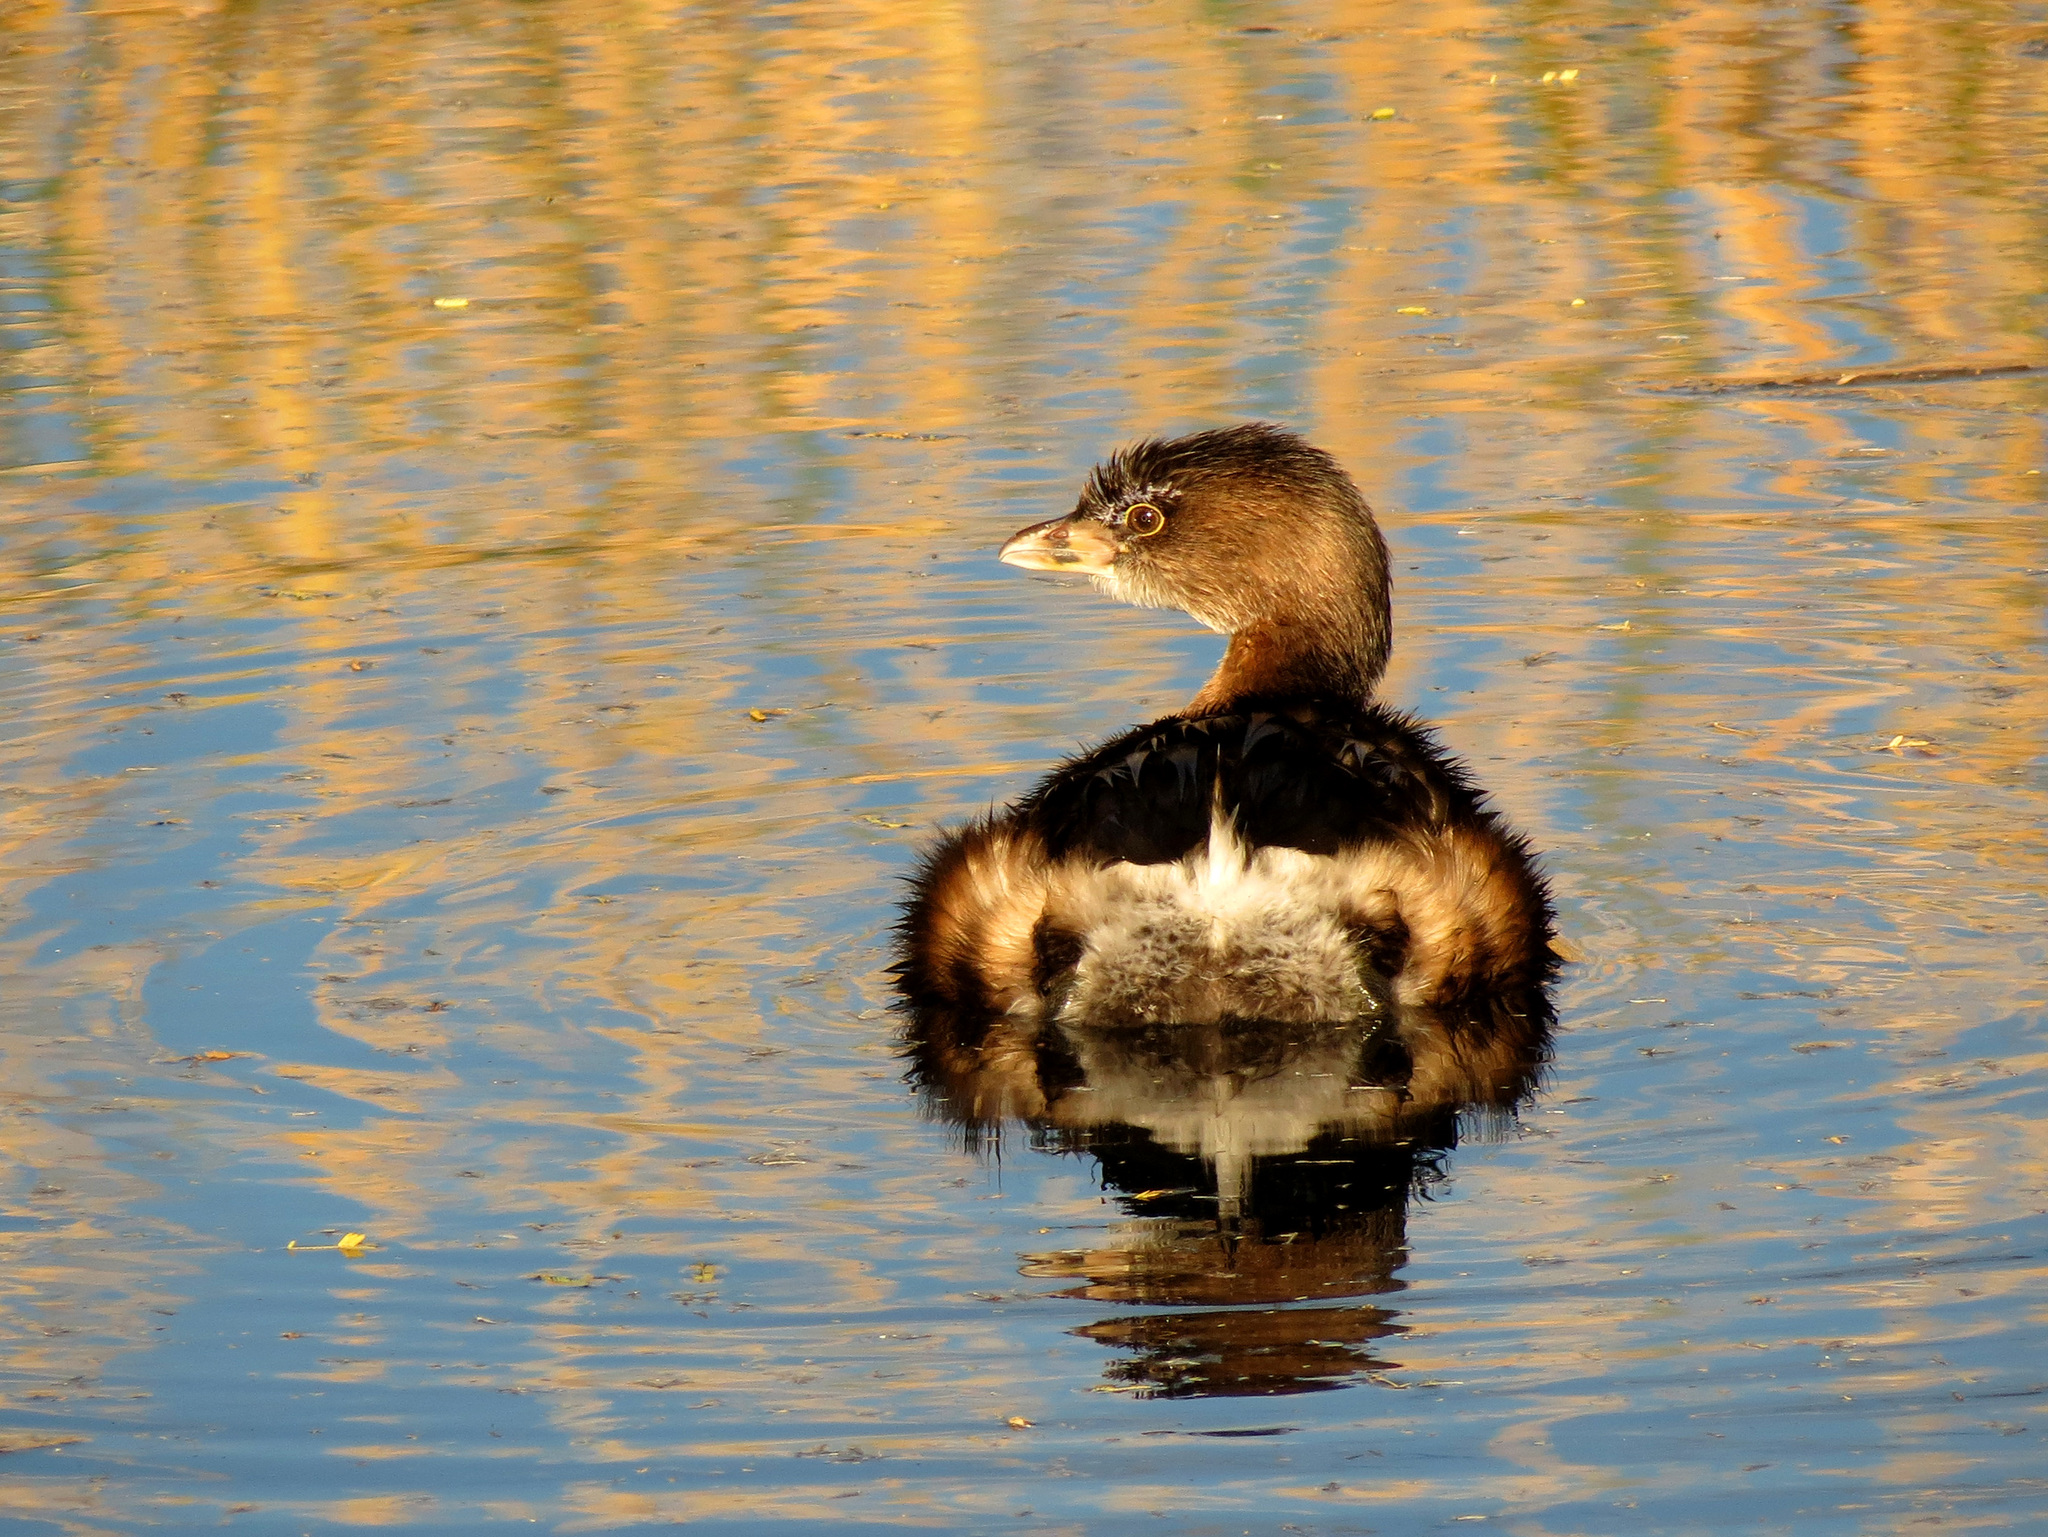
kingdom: Animalia
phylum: Chordata
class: Aves
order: Podicipediformes
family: Podicipedidae
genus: Podilymbus
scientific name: Podilymbus podiceps
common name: Pied-billed grebe
